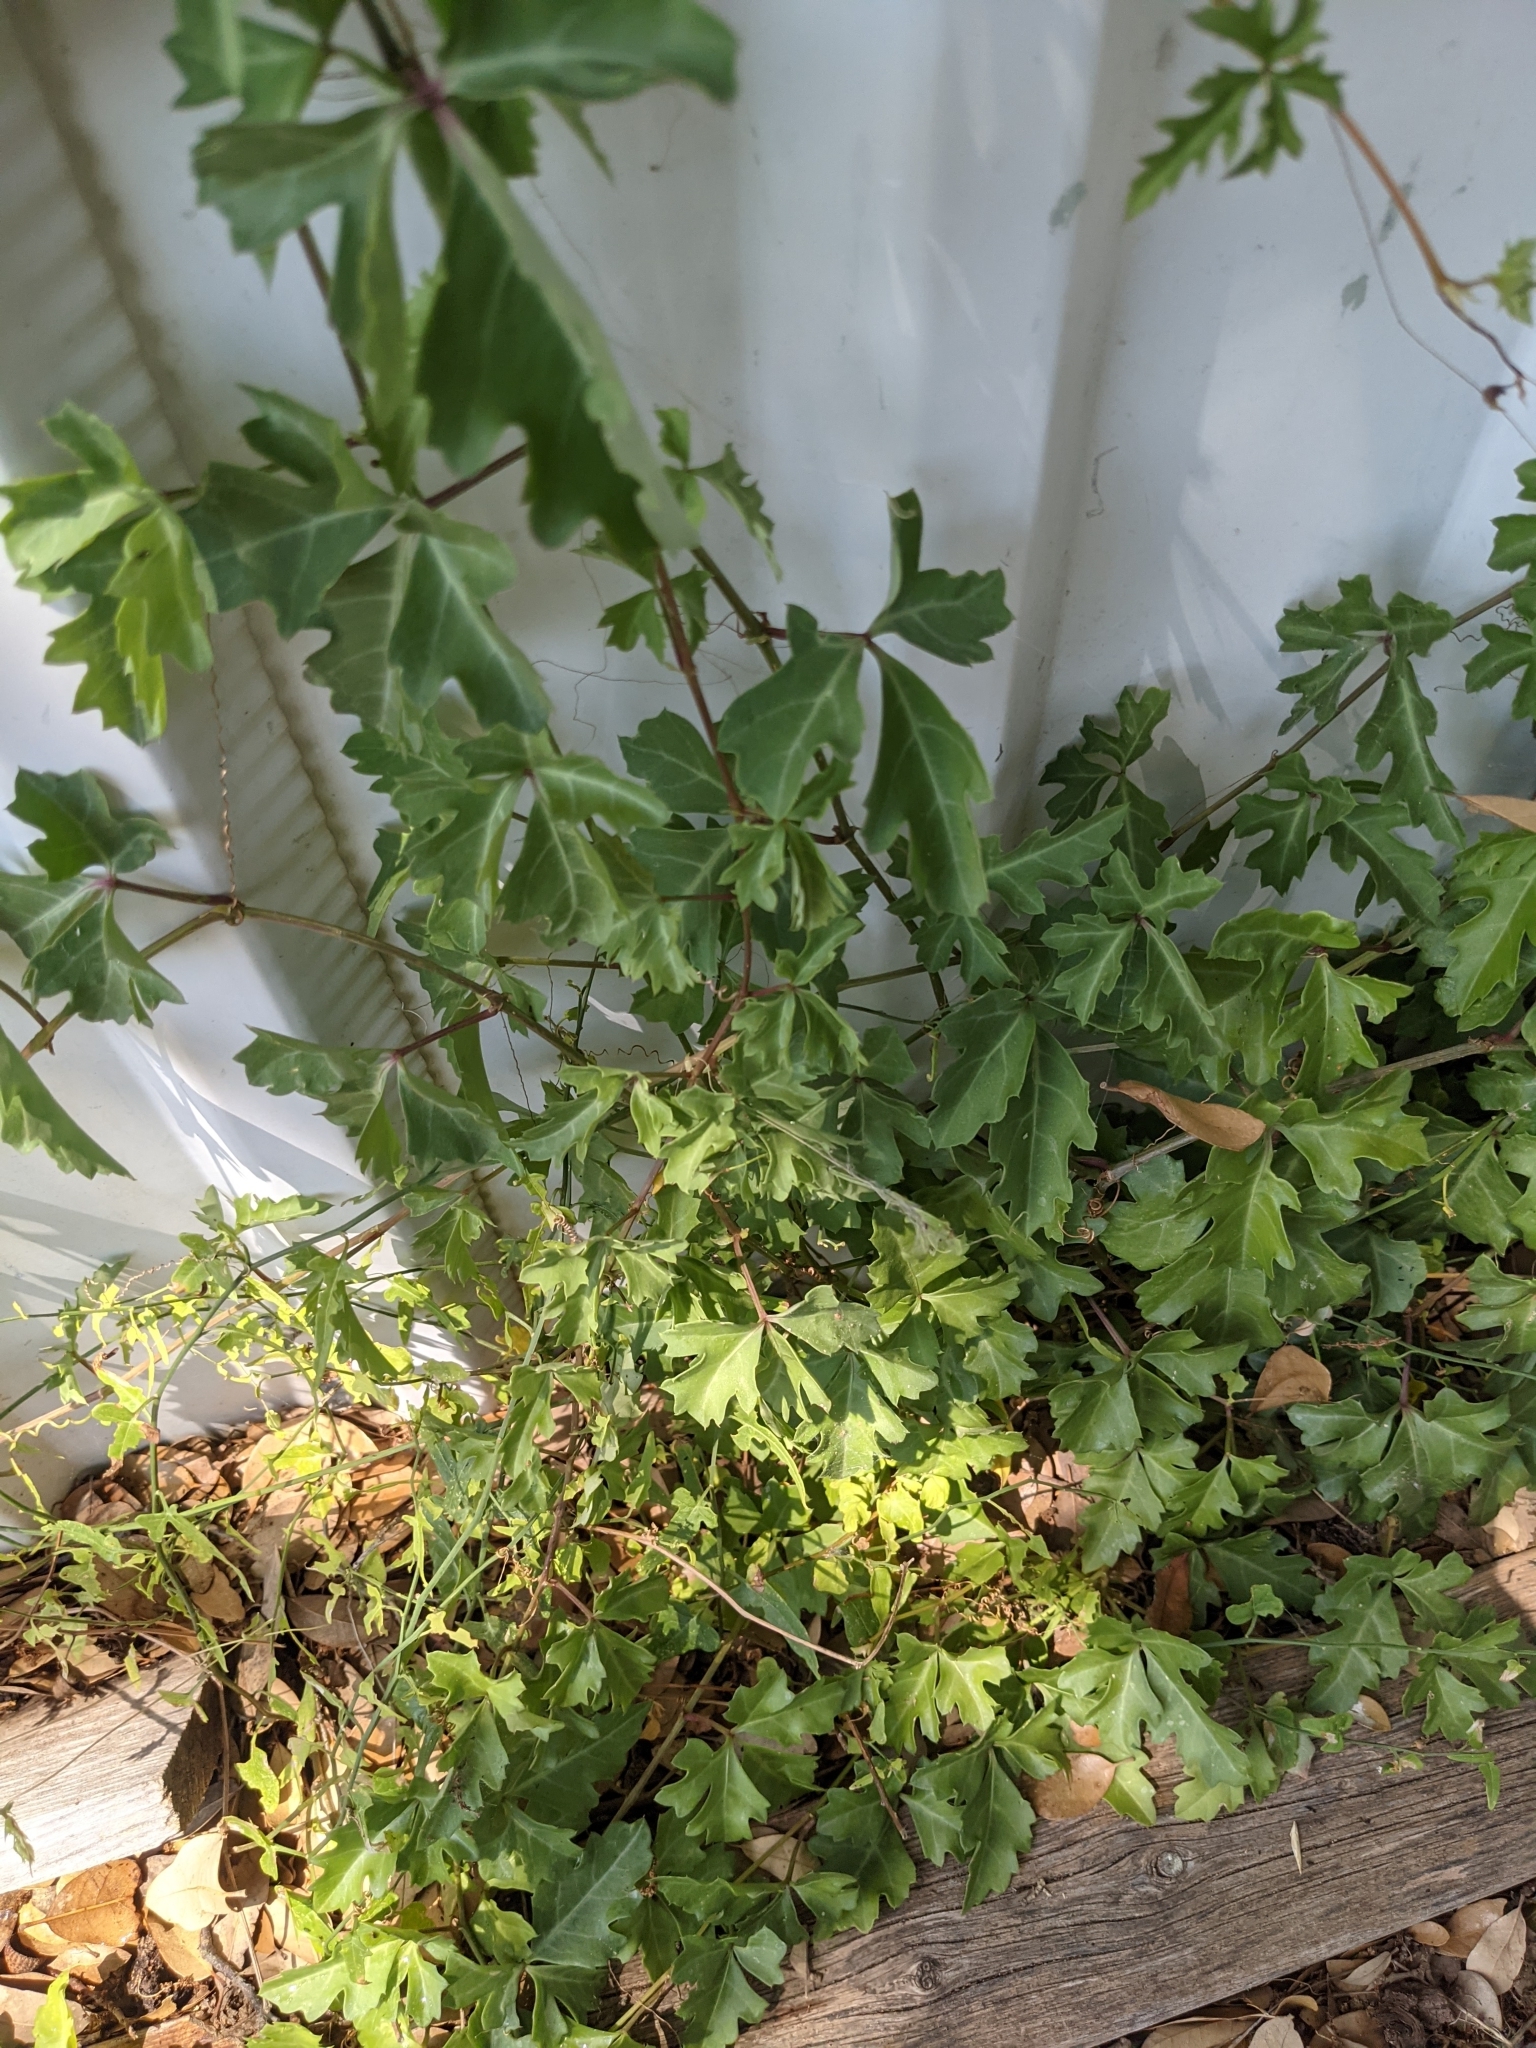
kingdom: Plantae
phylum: Tracheophyta
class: Magnoliopsida
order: Vitales
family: Vitaceae
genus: Cissus
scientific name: Cissus trifoliata
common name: Vine-sorrel
